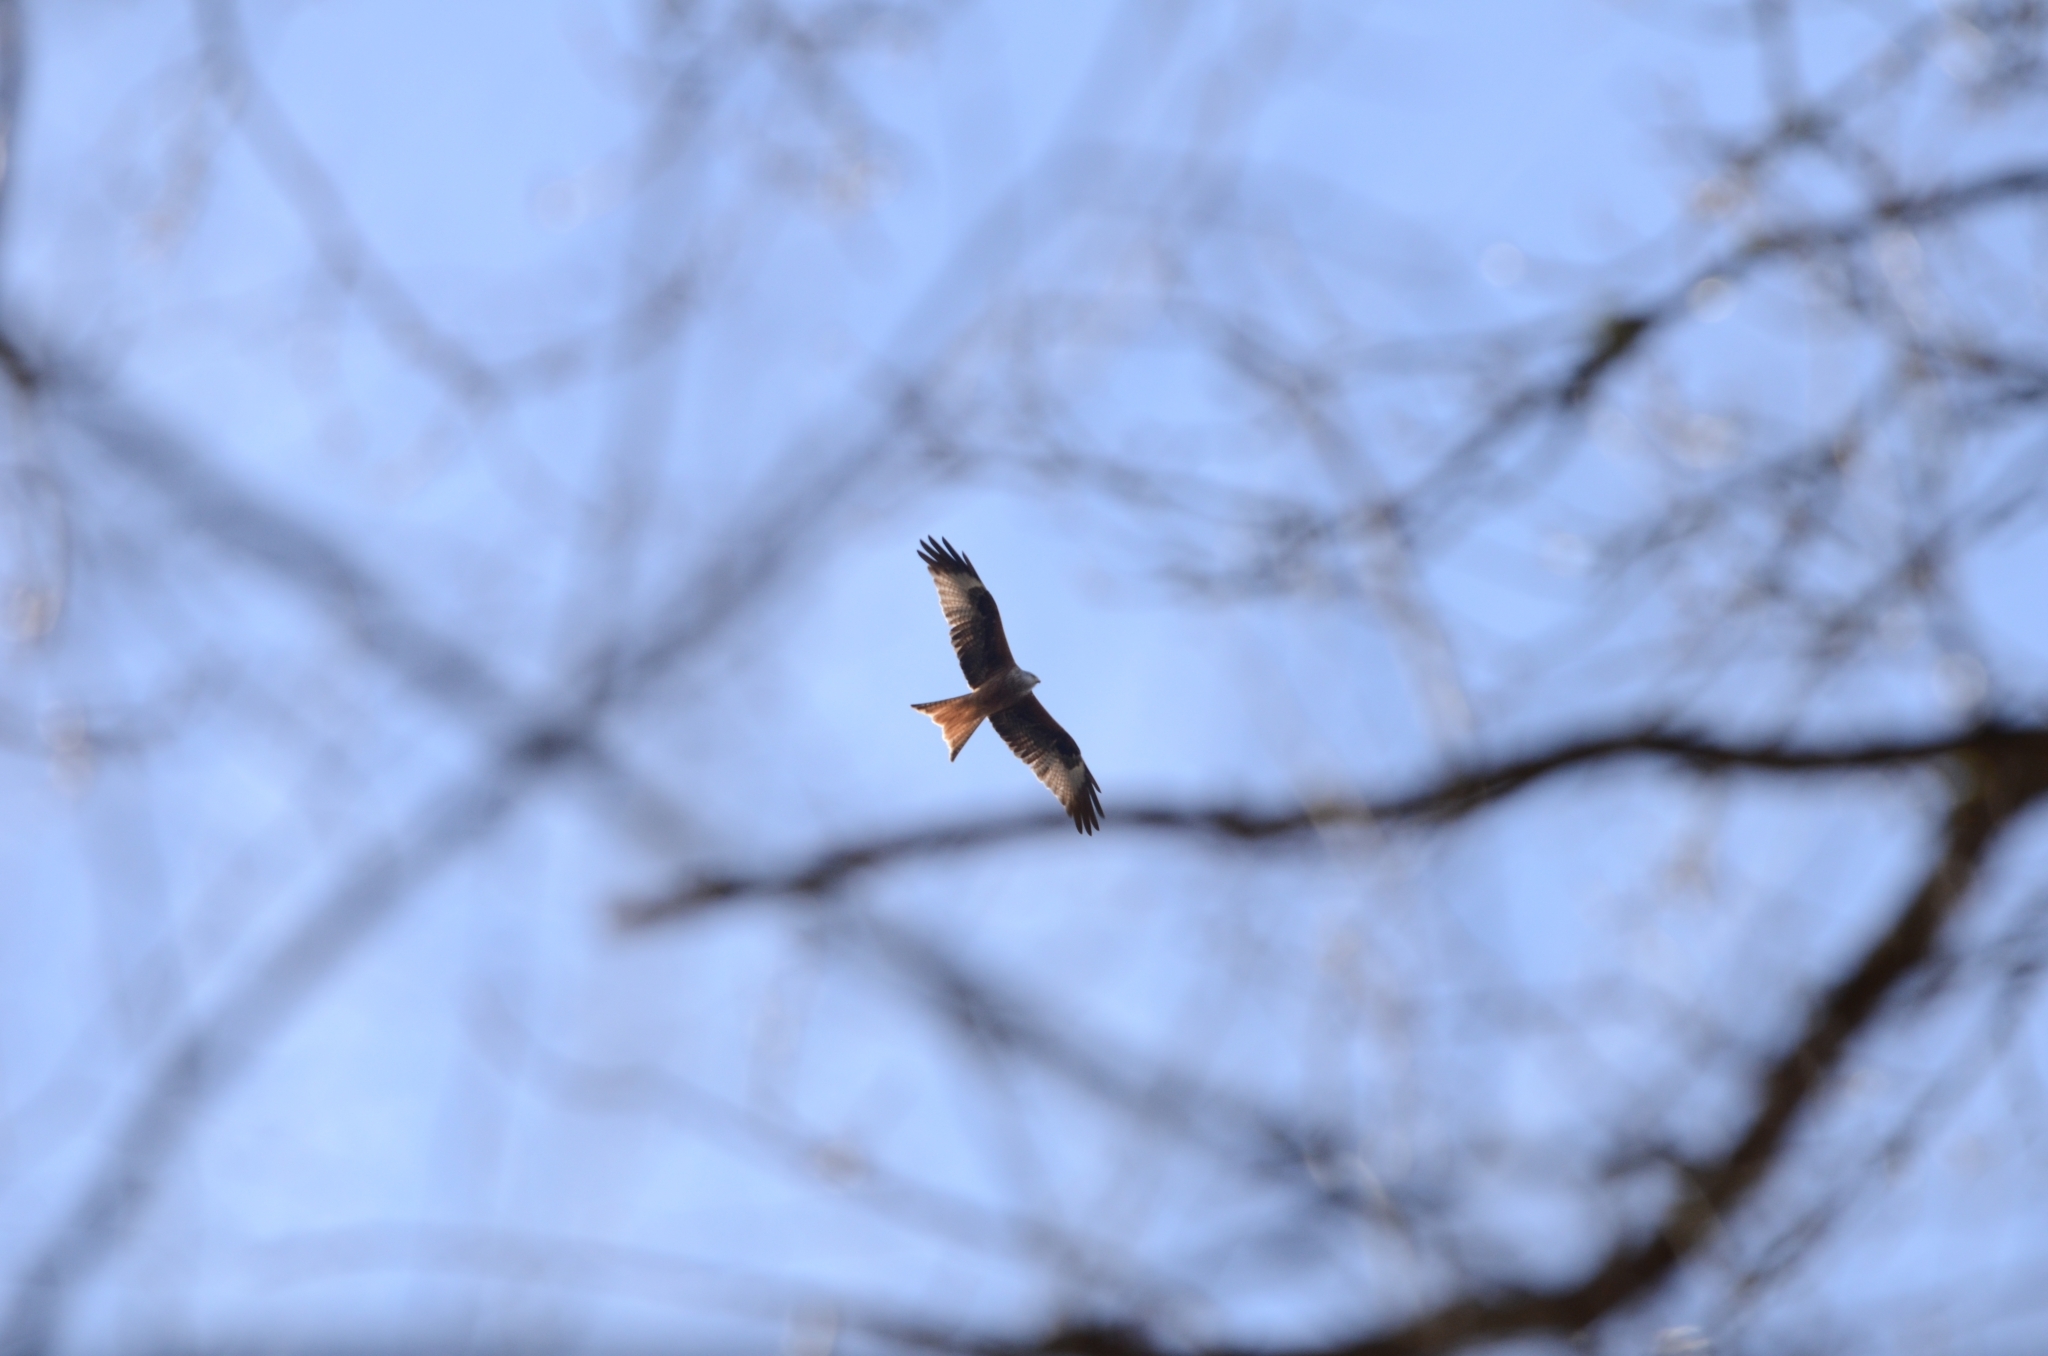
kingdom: Animalia
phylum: Chordata
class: Aves
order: Accipitriformes
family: Accipitridae
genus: Milvus
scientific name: Milvus milvus
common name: Red kite
